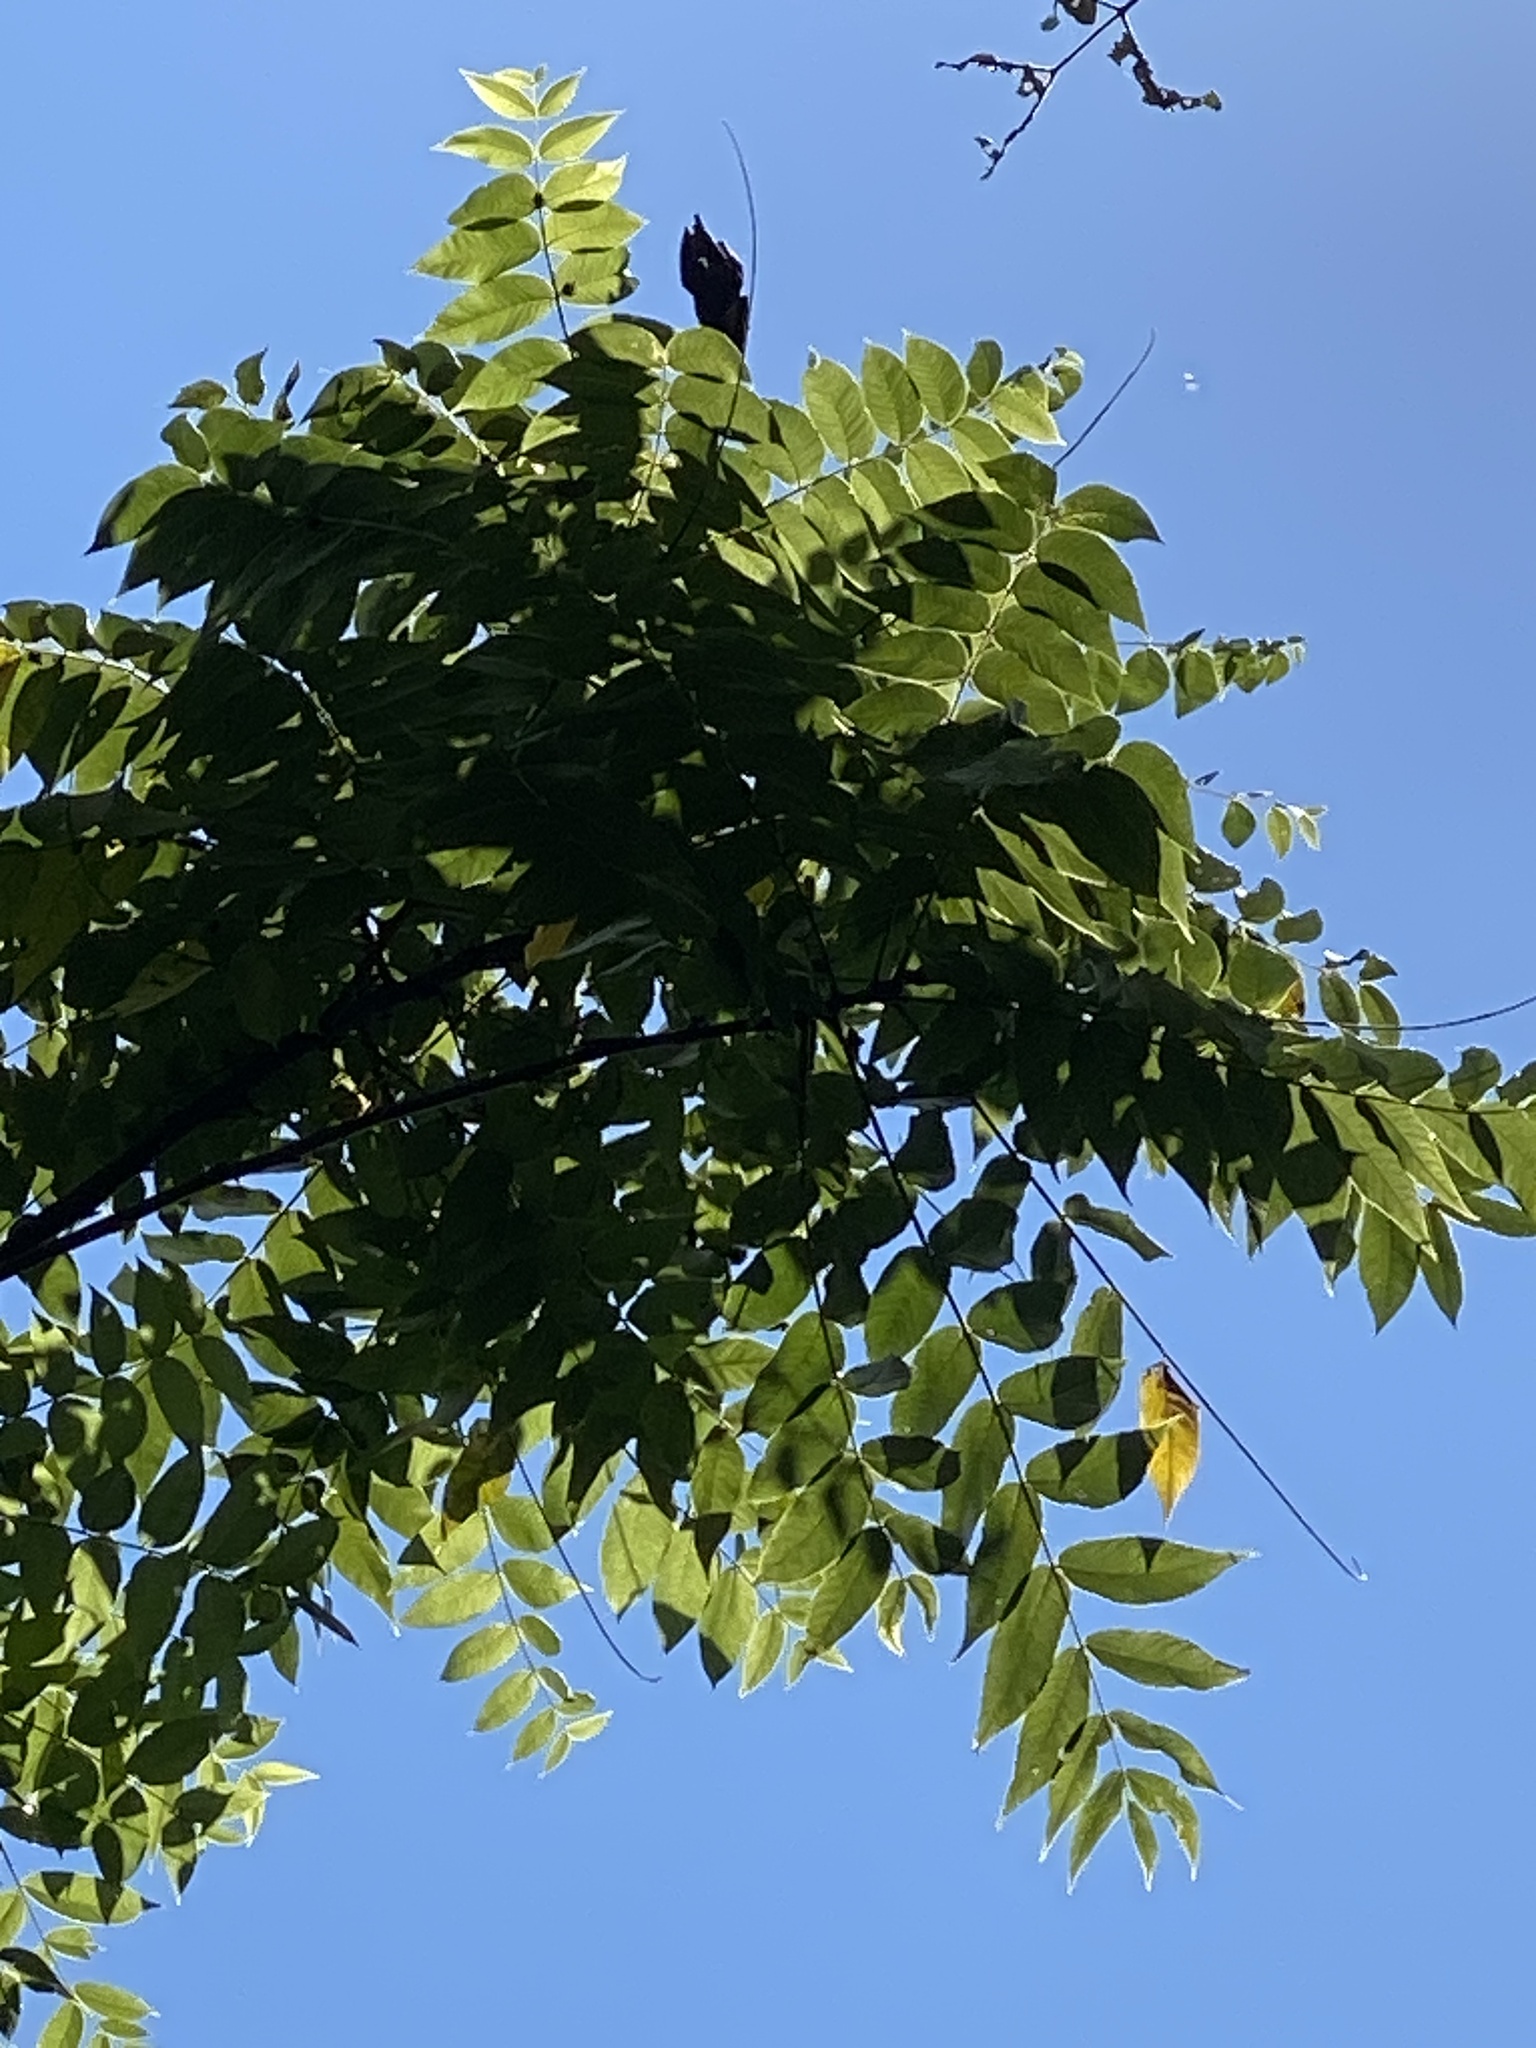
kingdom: Plantae
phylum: Tracheophyta
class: Magnoliopsida
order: Fagales
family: Juglandaceae
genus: Juglans
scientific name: Juglans nigra
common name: Black walnut
